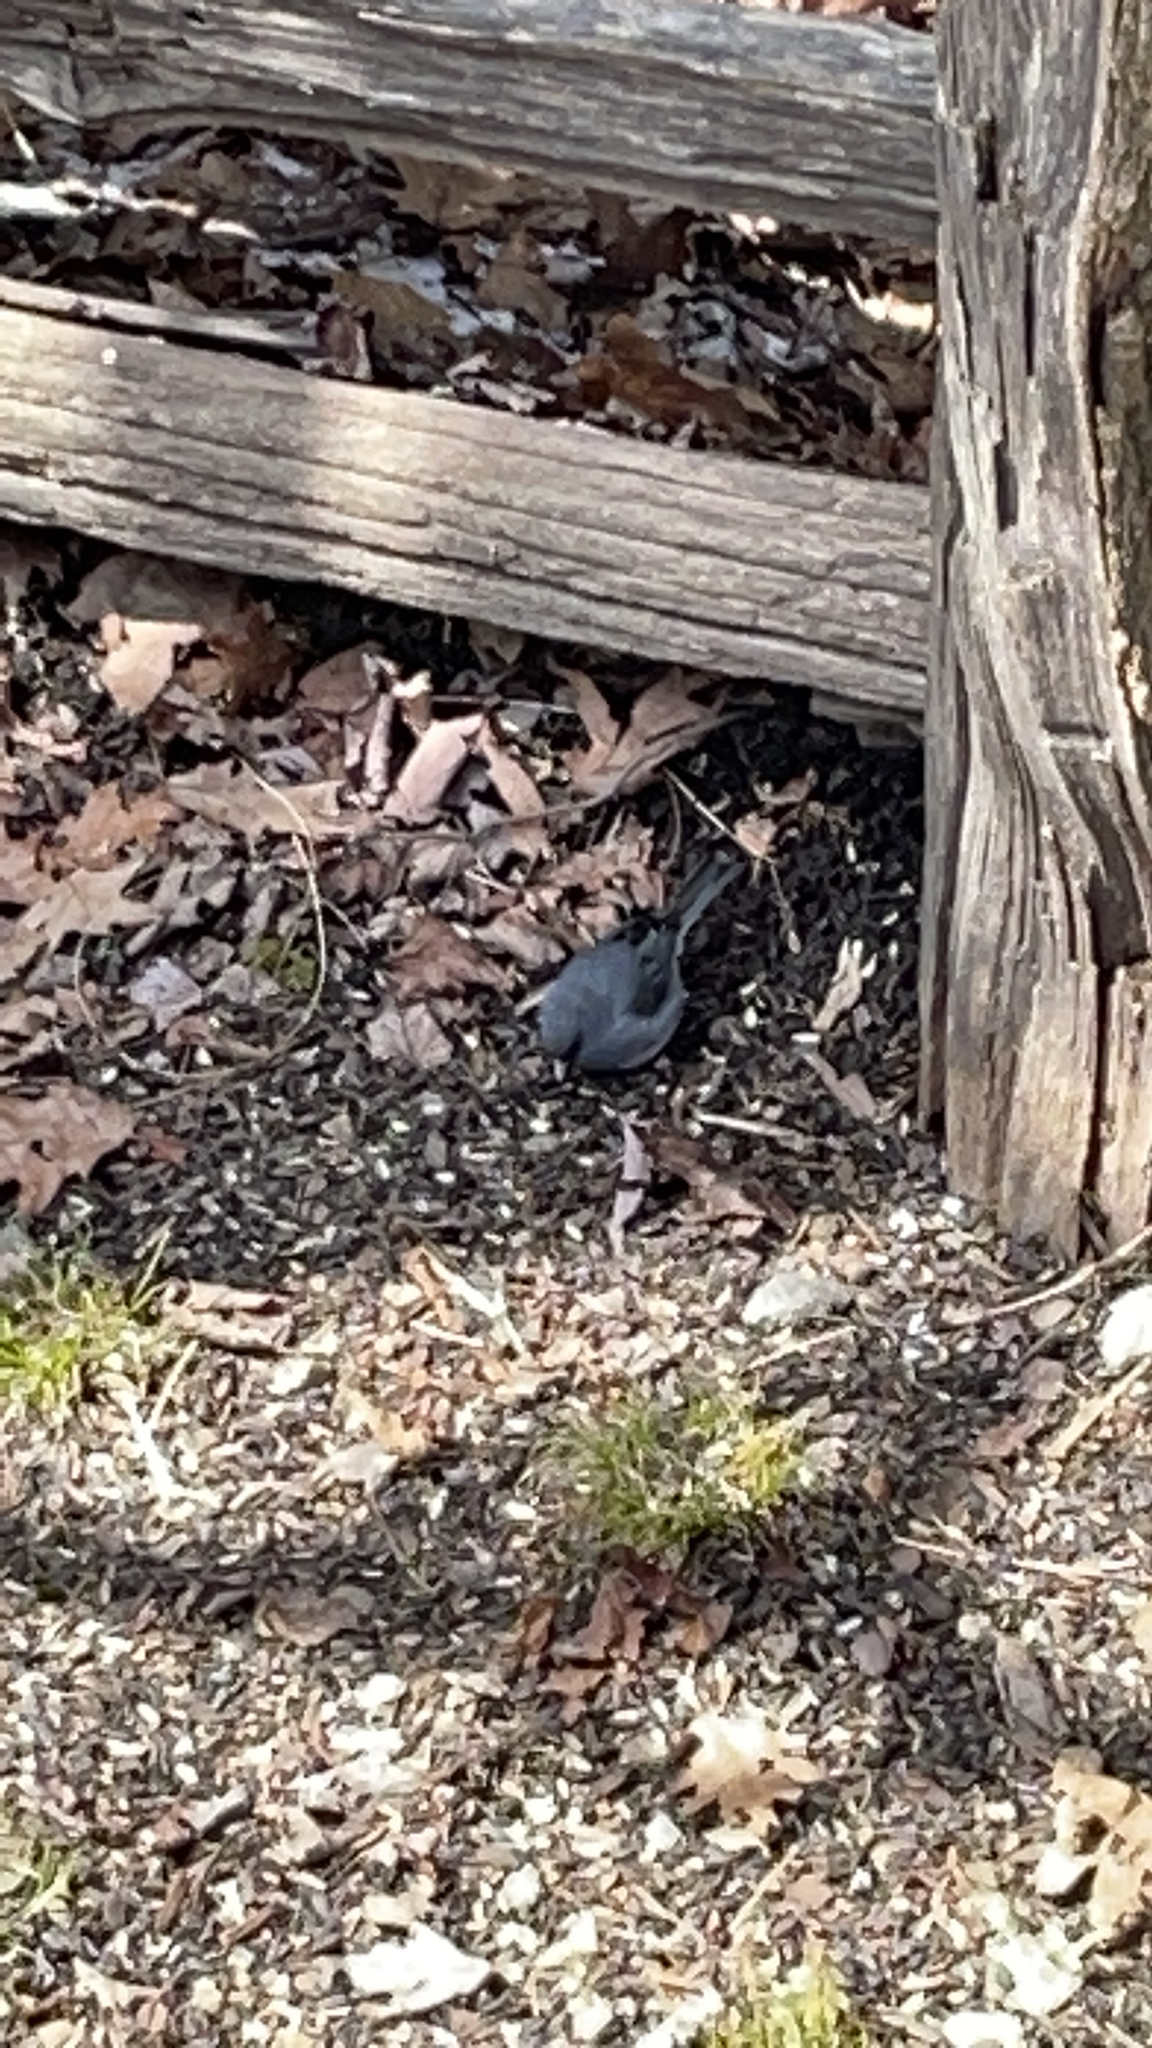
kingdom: Animalia
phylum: Chordata
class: Aves
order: Passeriformes
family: Passerellidae
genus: Junco
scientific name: Junco hyemalis
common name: Dark-eyed junco
